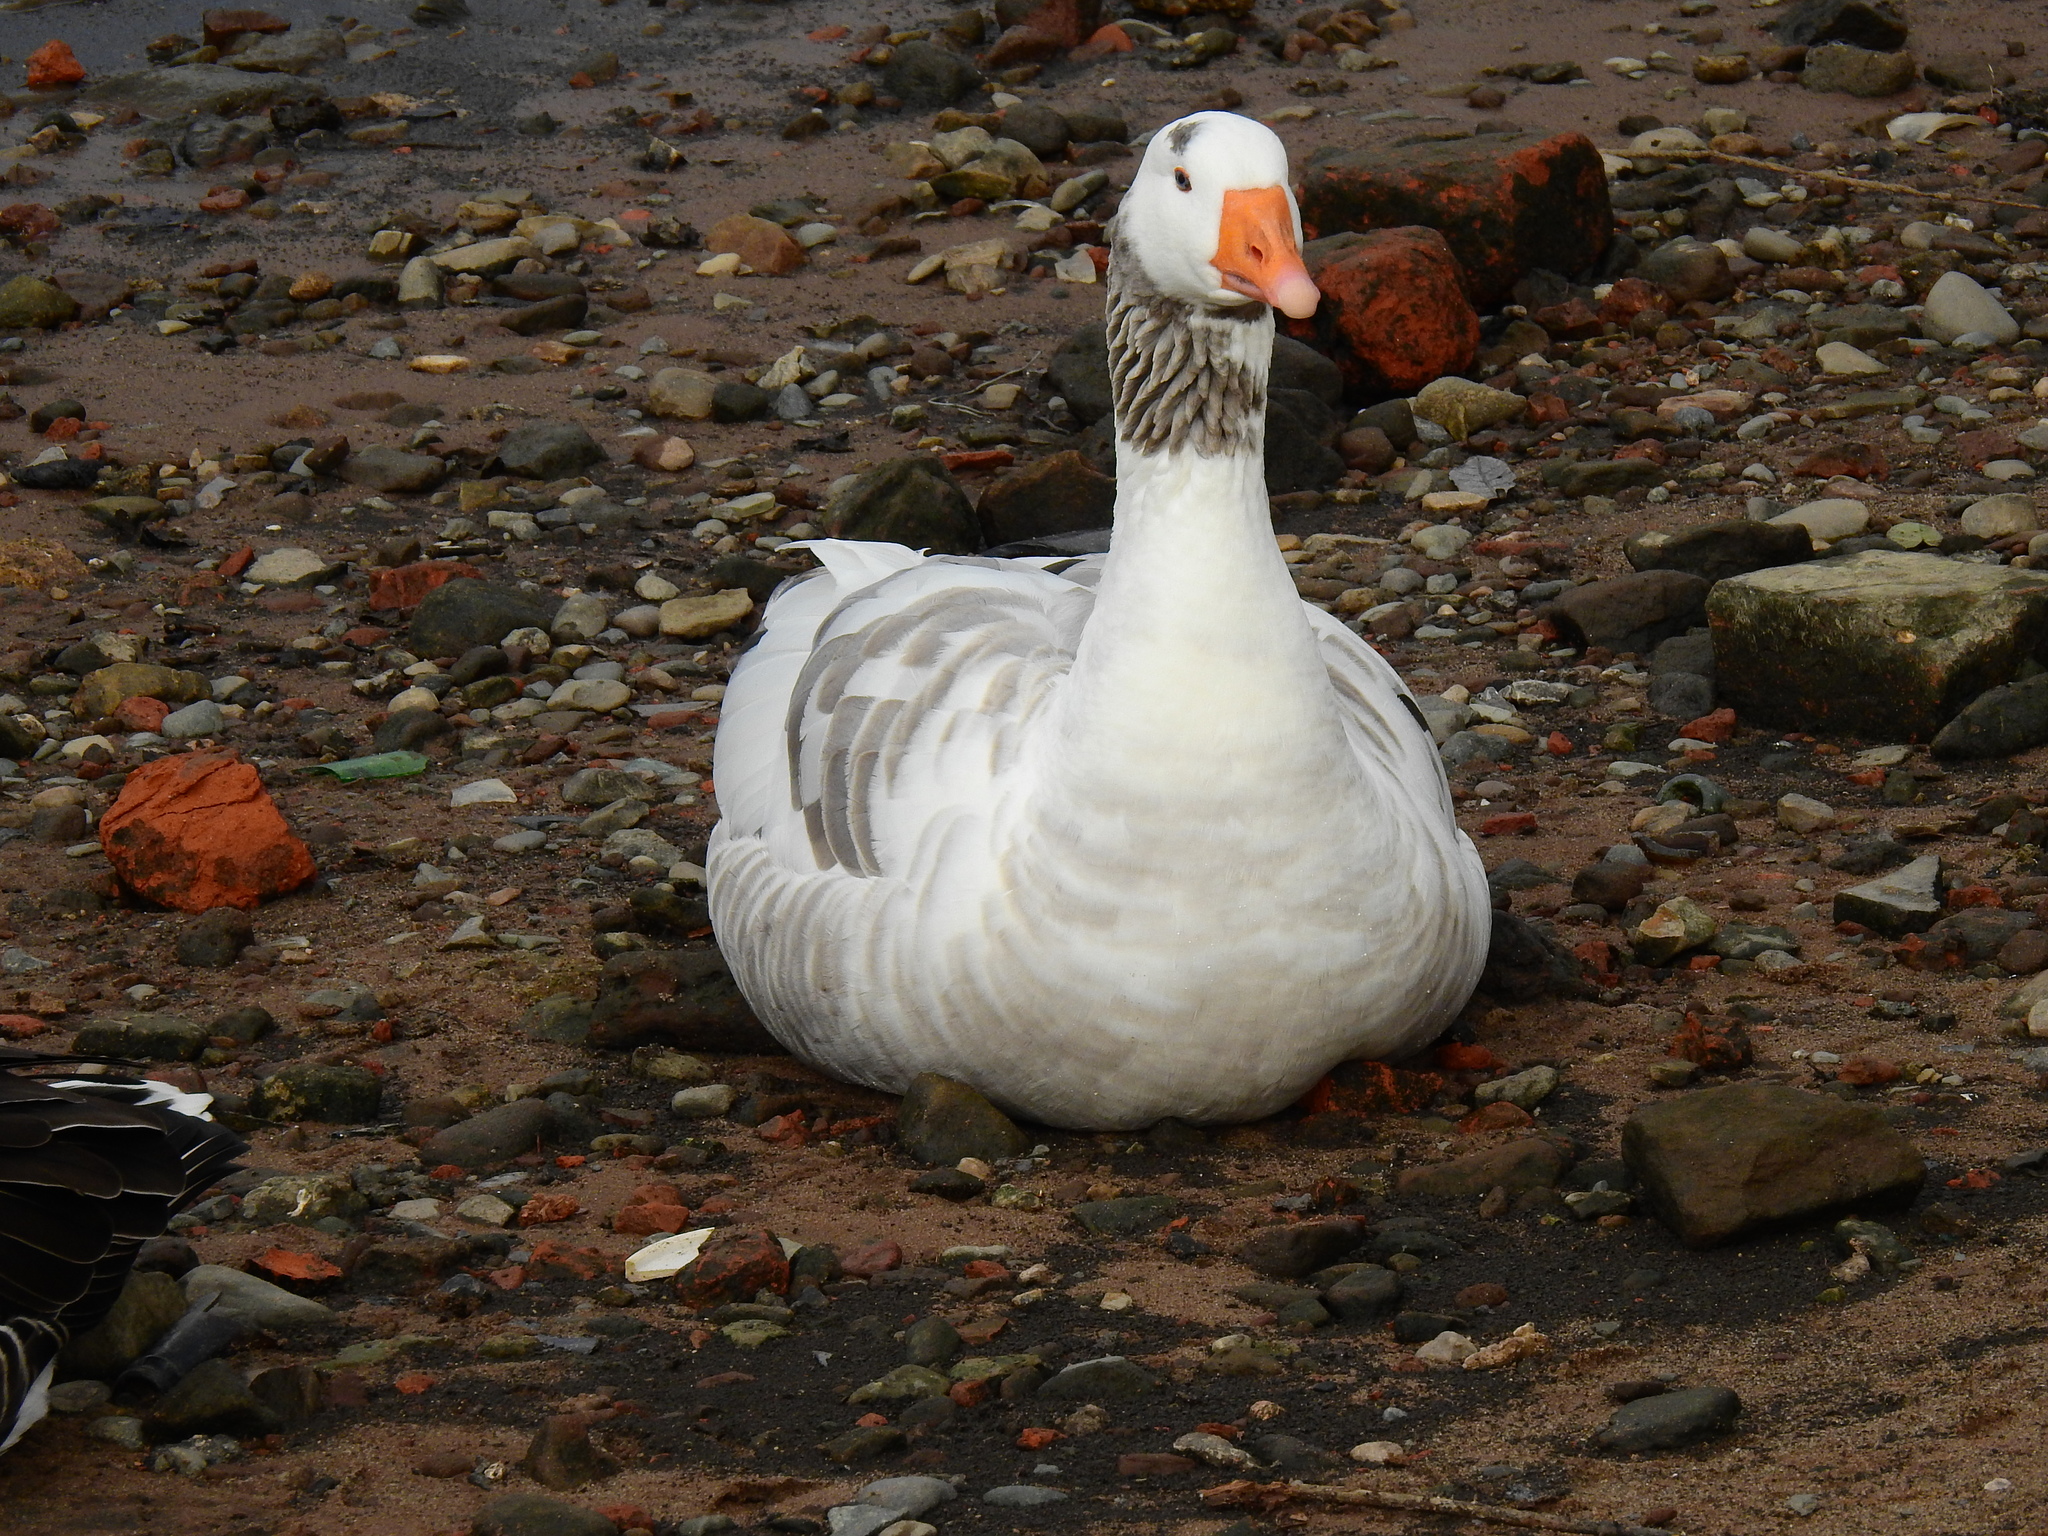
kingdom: Animalia
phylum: Chordata
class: Aves
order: Anseriformes
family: Anatidae
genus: Anser
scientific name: Anser anser
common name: Greylag goose
